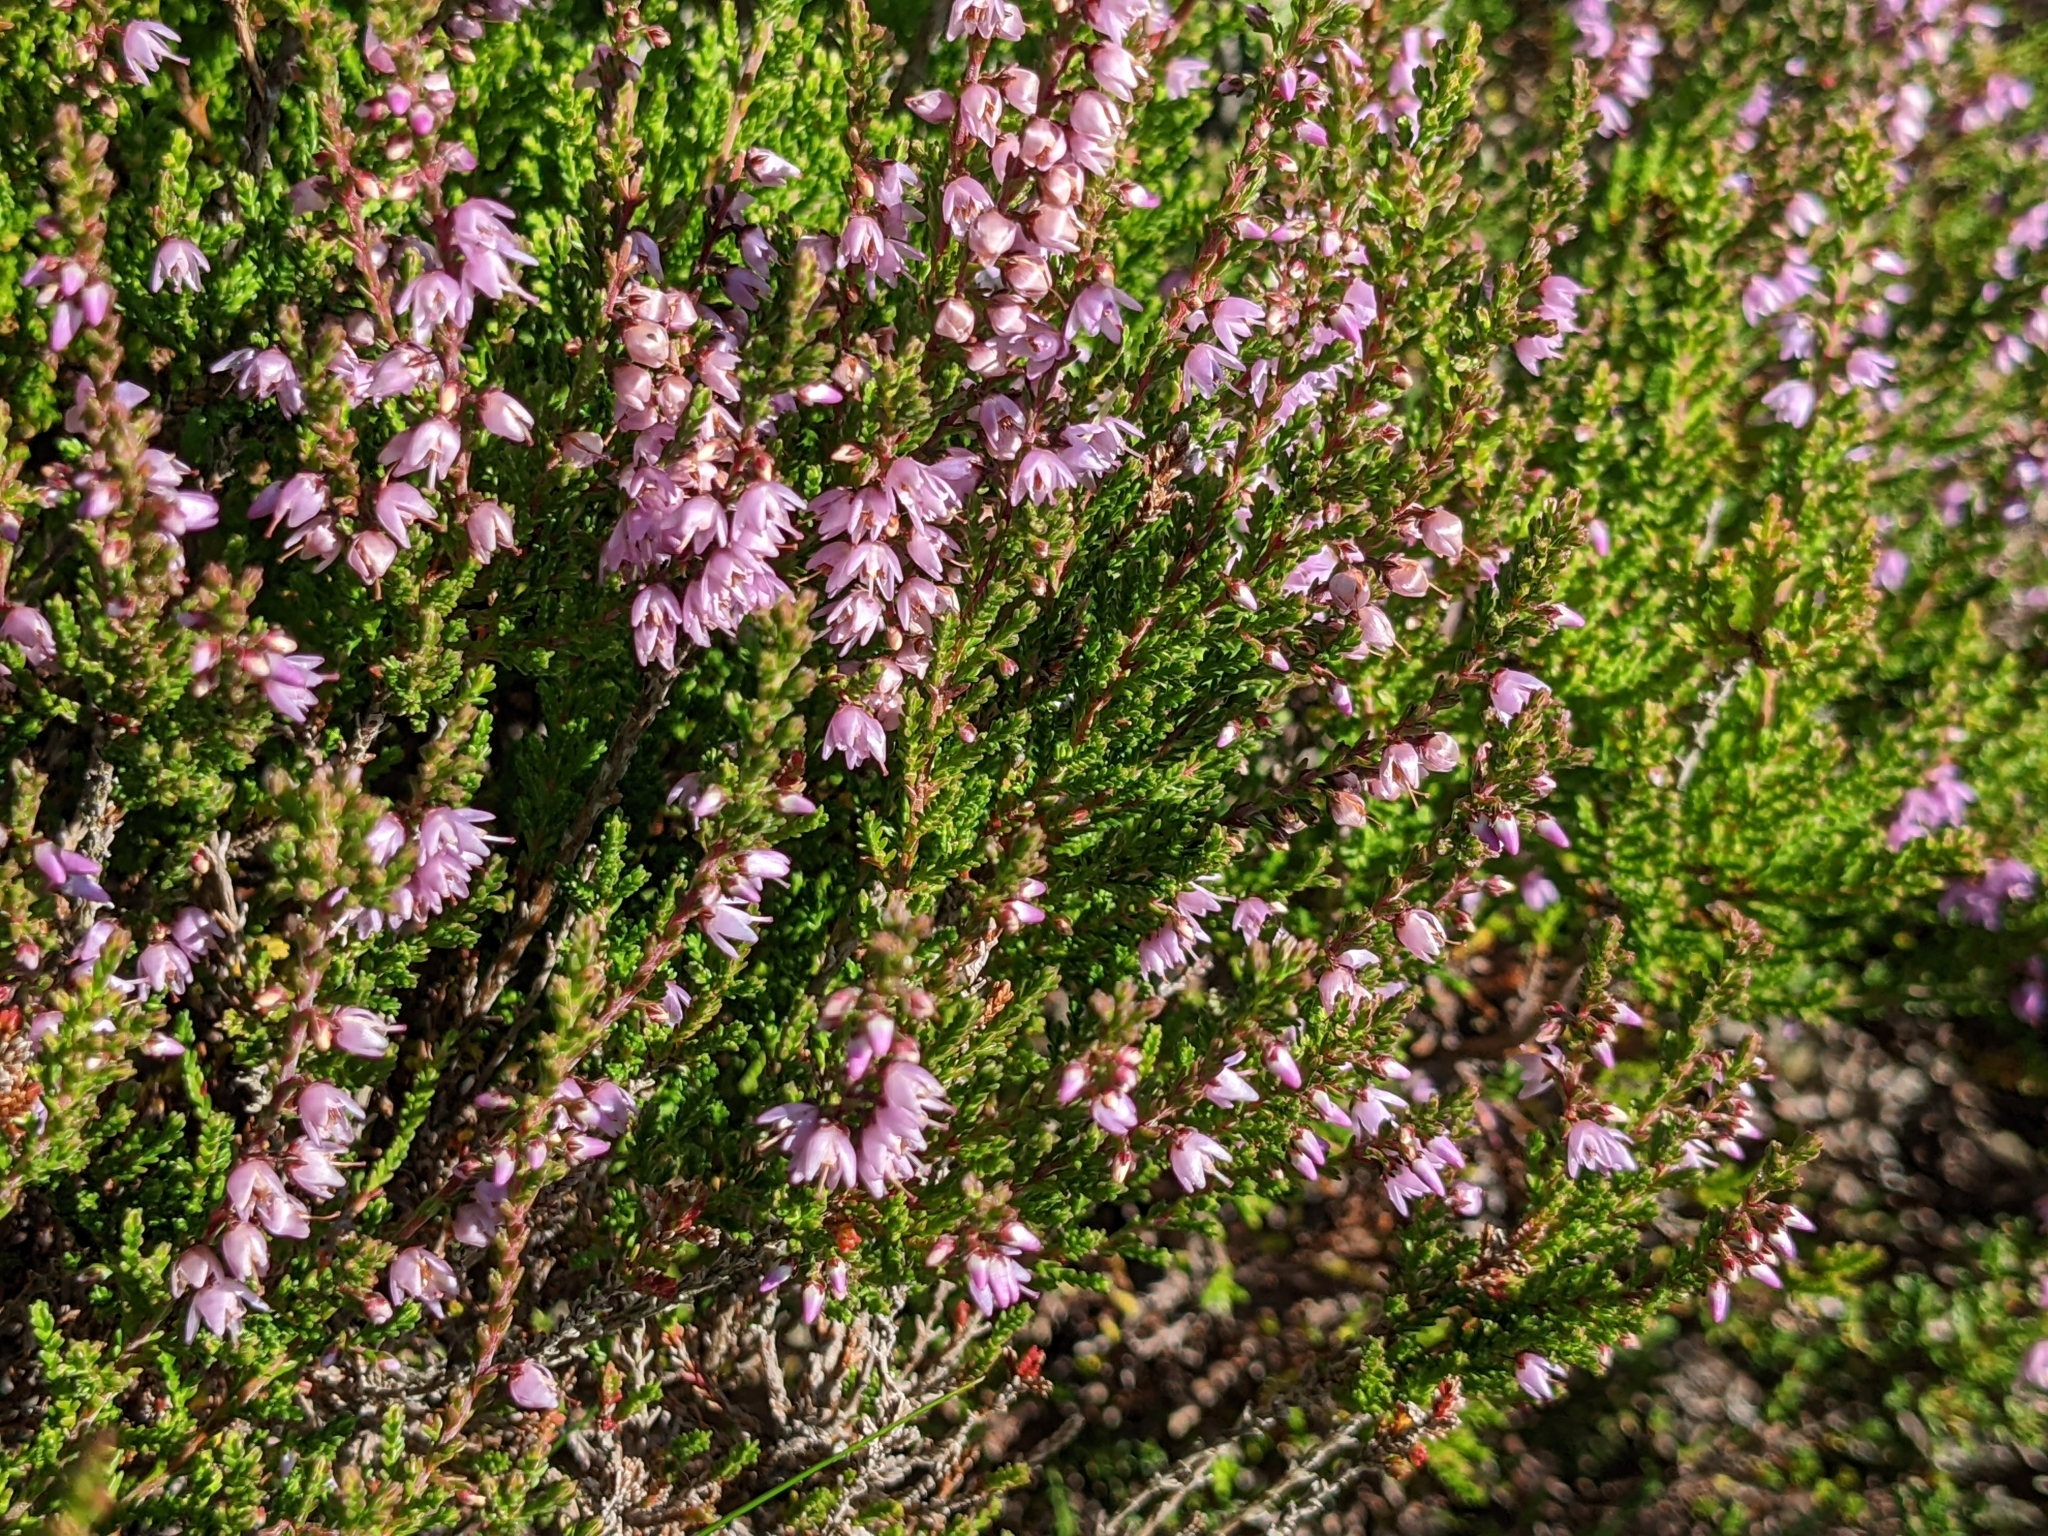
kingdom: Plantae
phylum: Tracheophyta
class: Magnoliopsida
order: Ericales
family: Ericaceae
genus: Calluna
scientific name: Calluna vulgaris
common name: Heather
